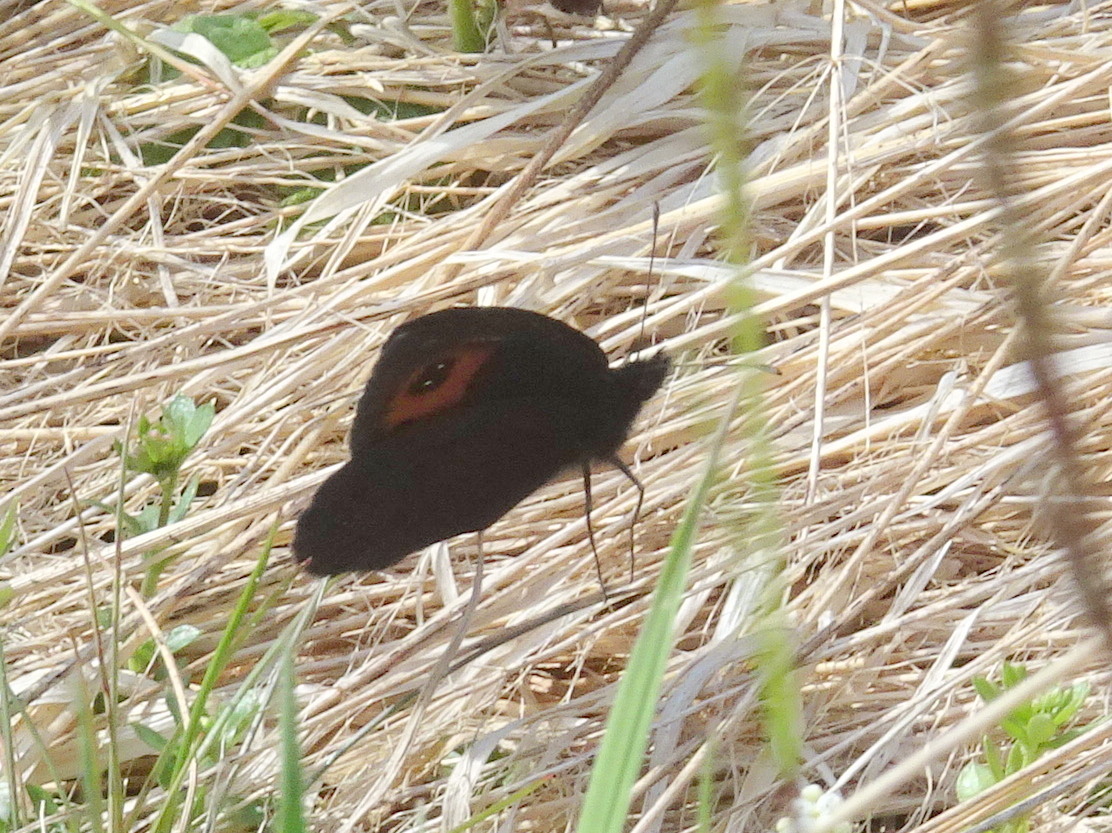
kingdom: Animalia
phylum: Arthropoda
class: Insecta
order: Lepidoptera
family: Nymphalidae
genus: Erebia
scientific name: Erebia meolans
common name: Piedmont ringlet
